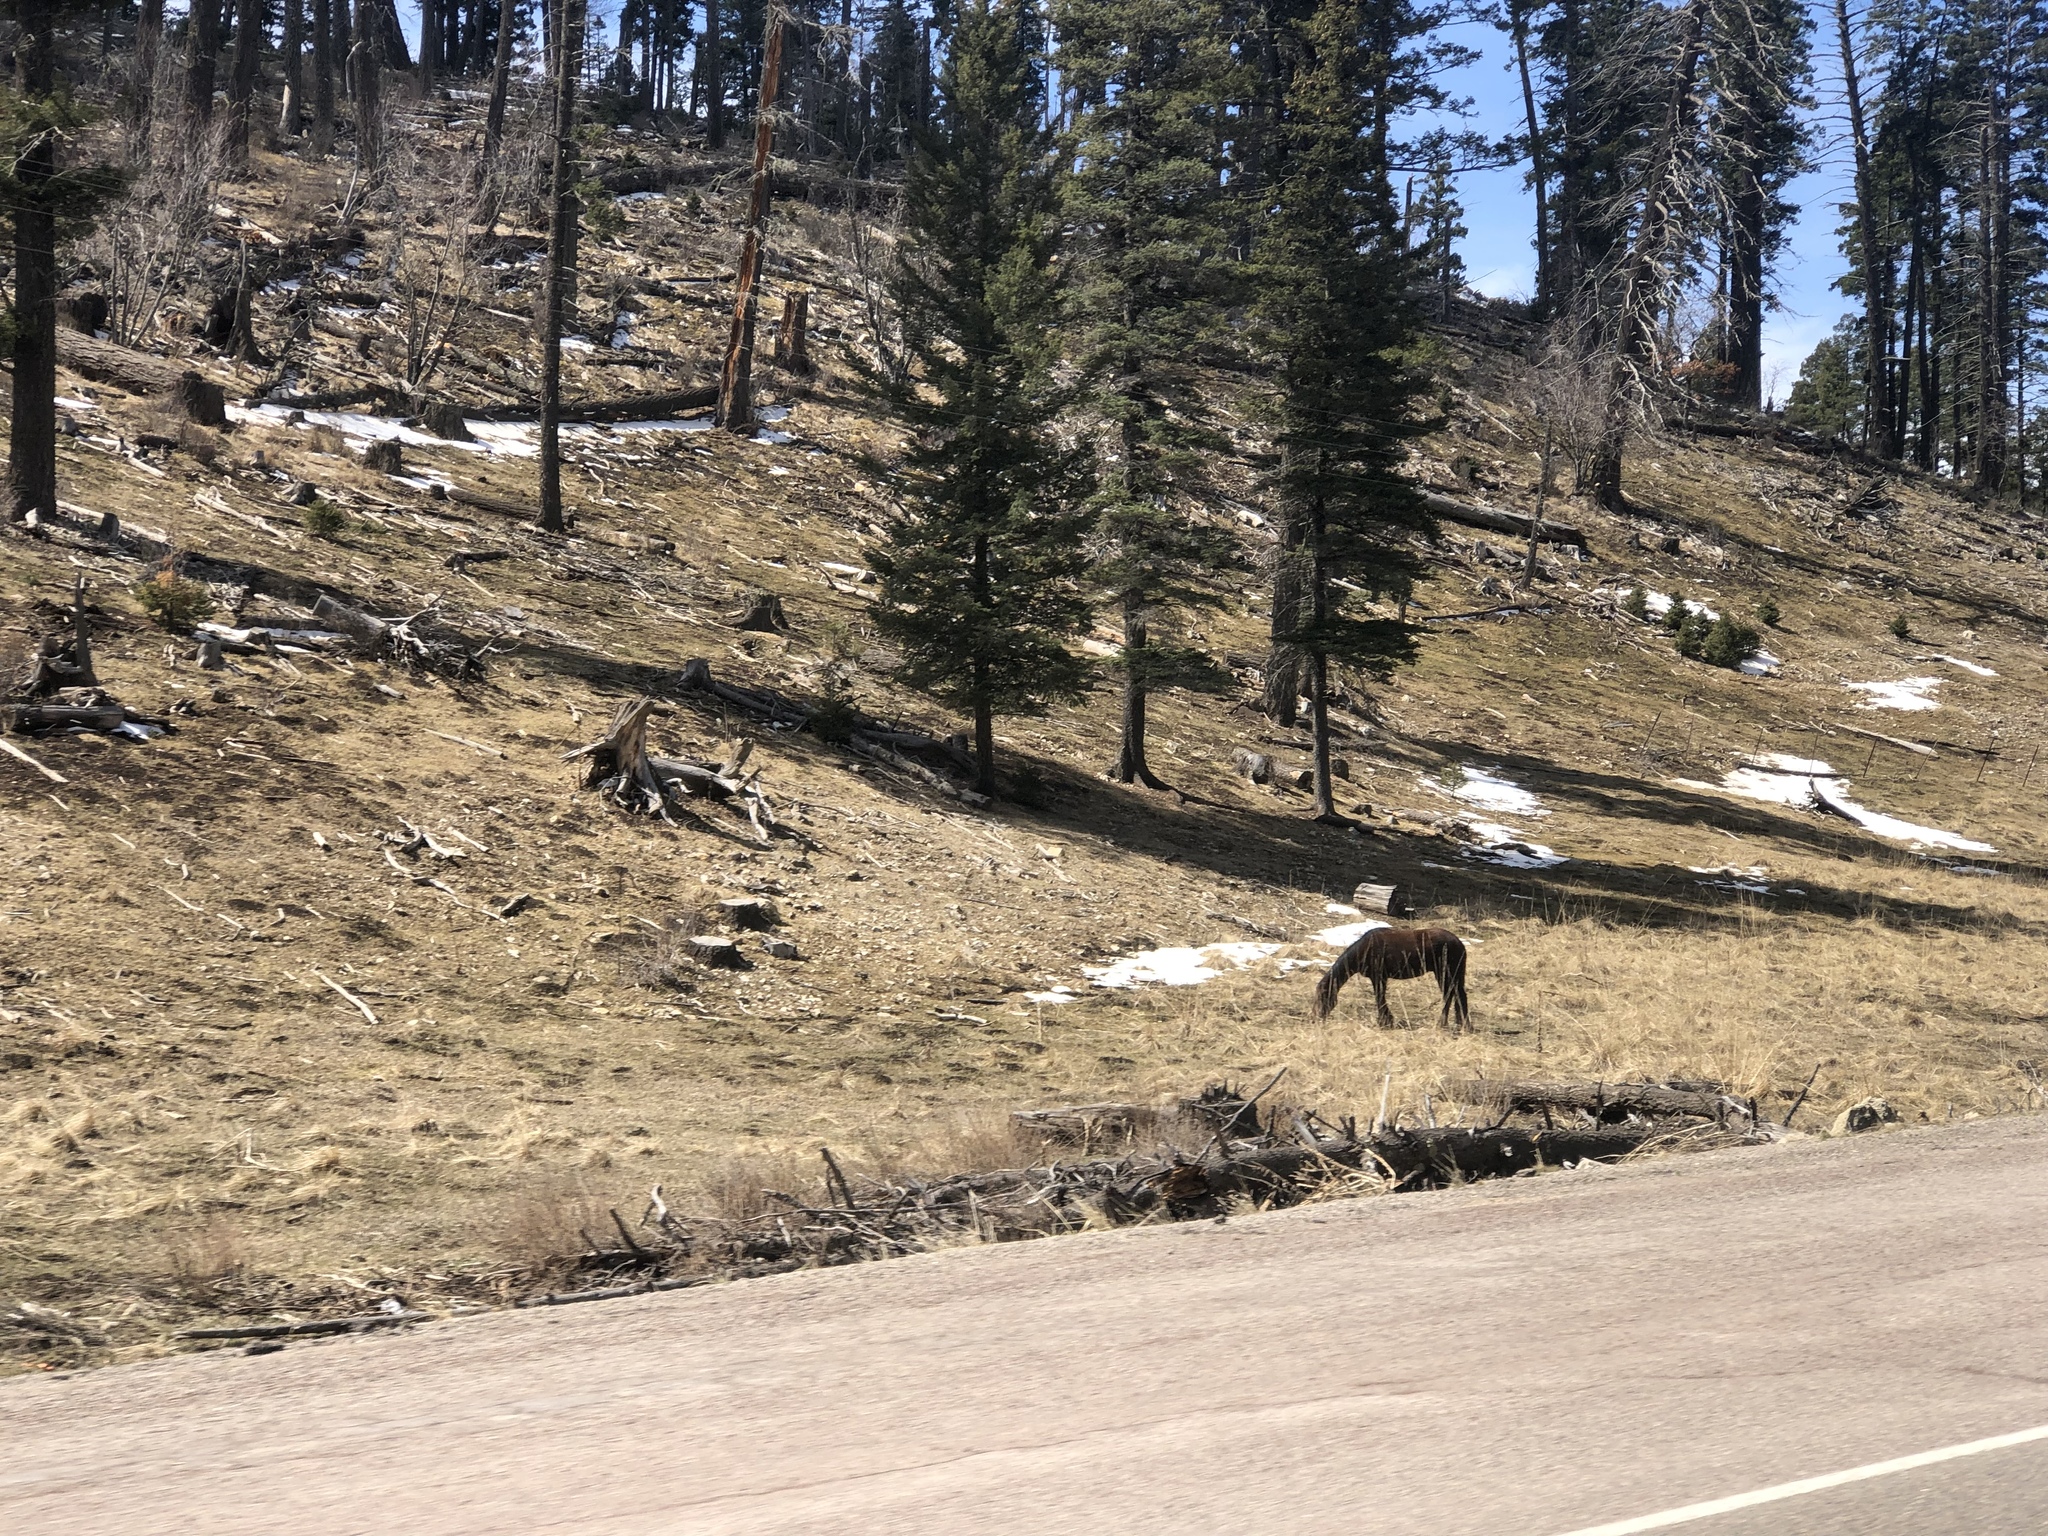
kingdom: Animalia
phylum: Chordata
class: Mammalia
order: Perissodactyla
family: Equidae
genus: Equus
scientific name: Equus caballus
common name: Horse
